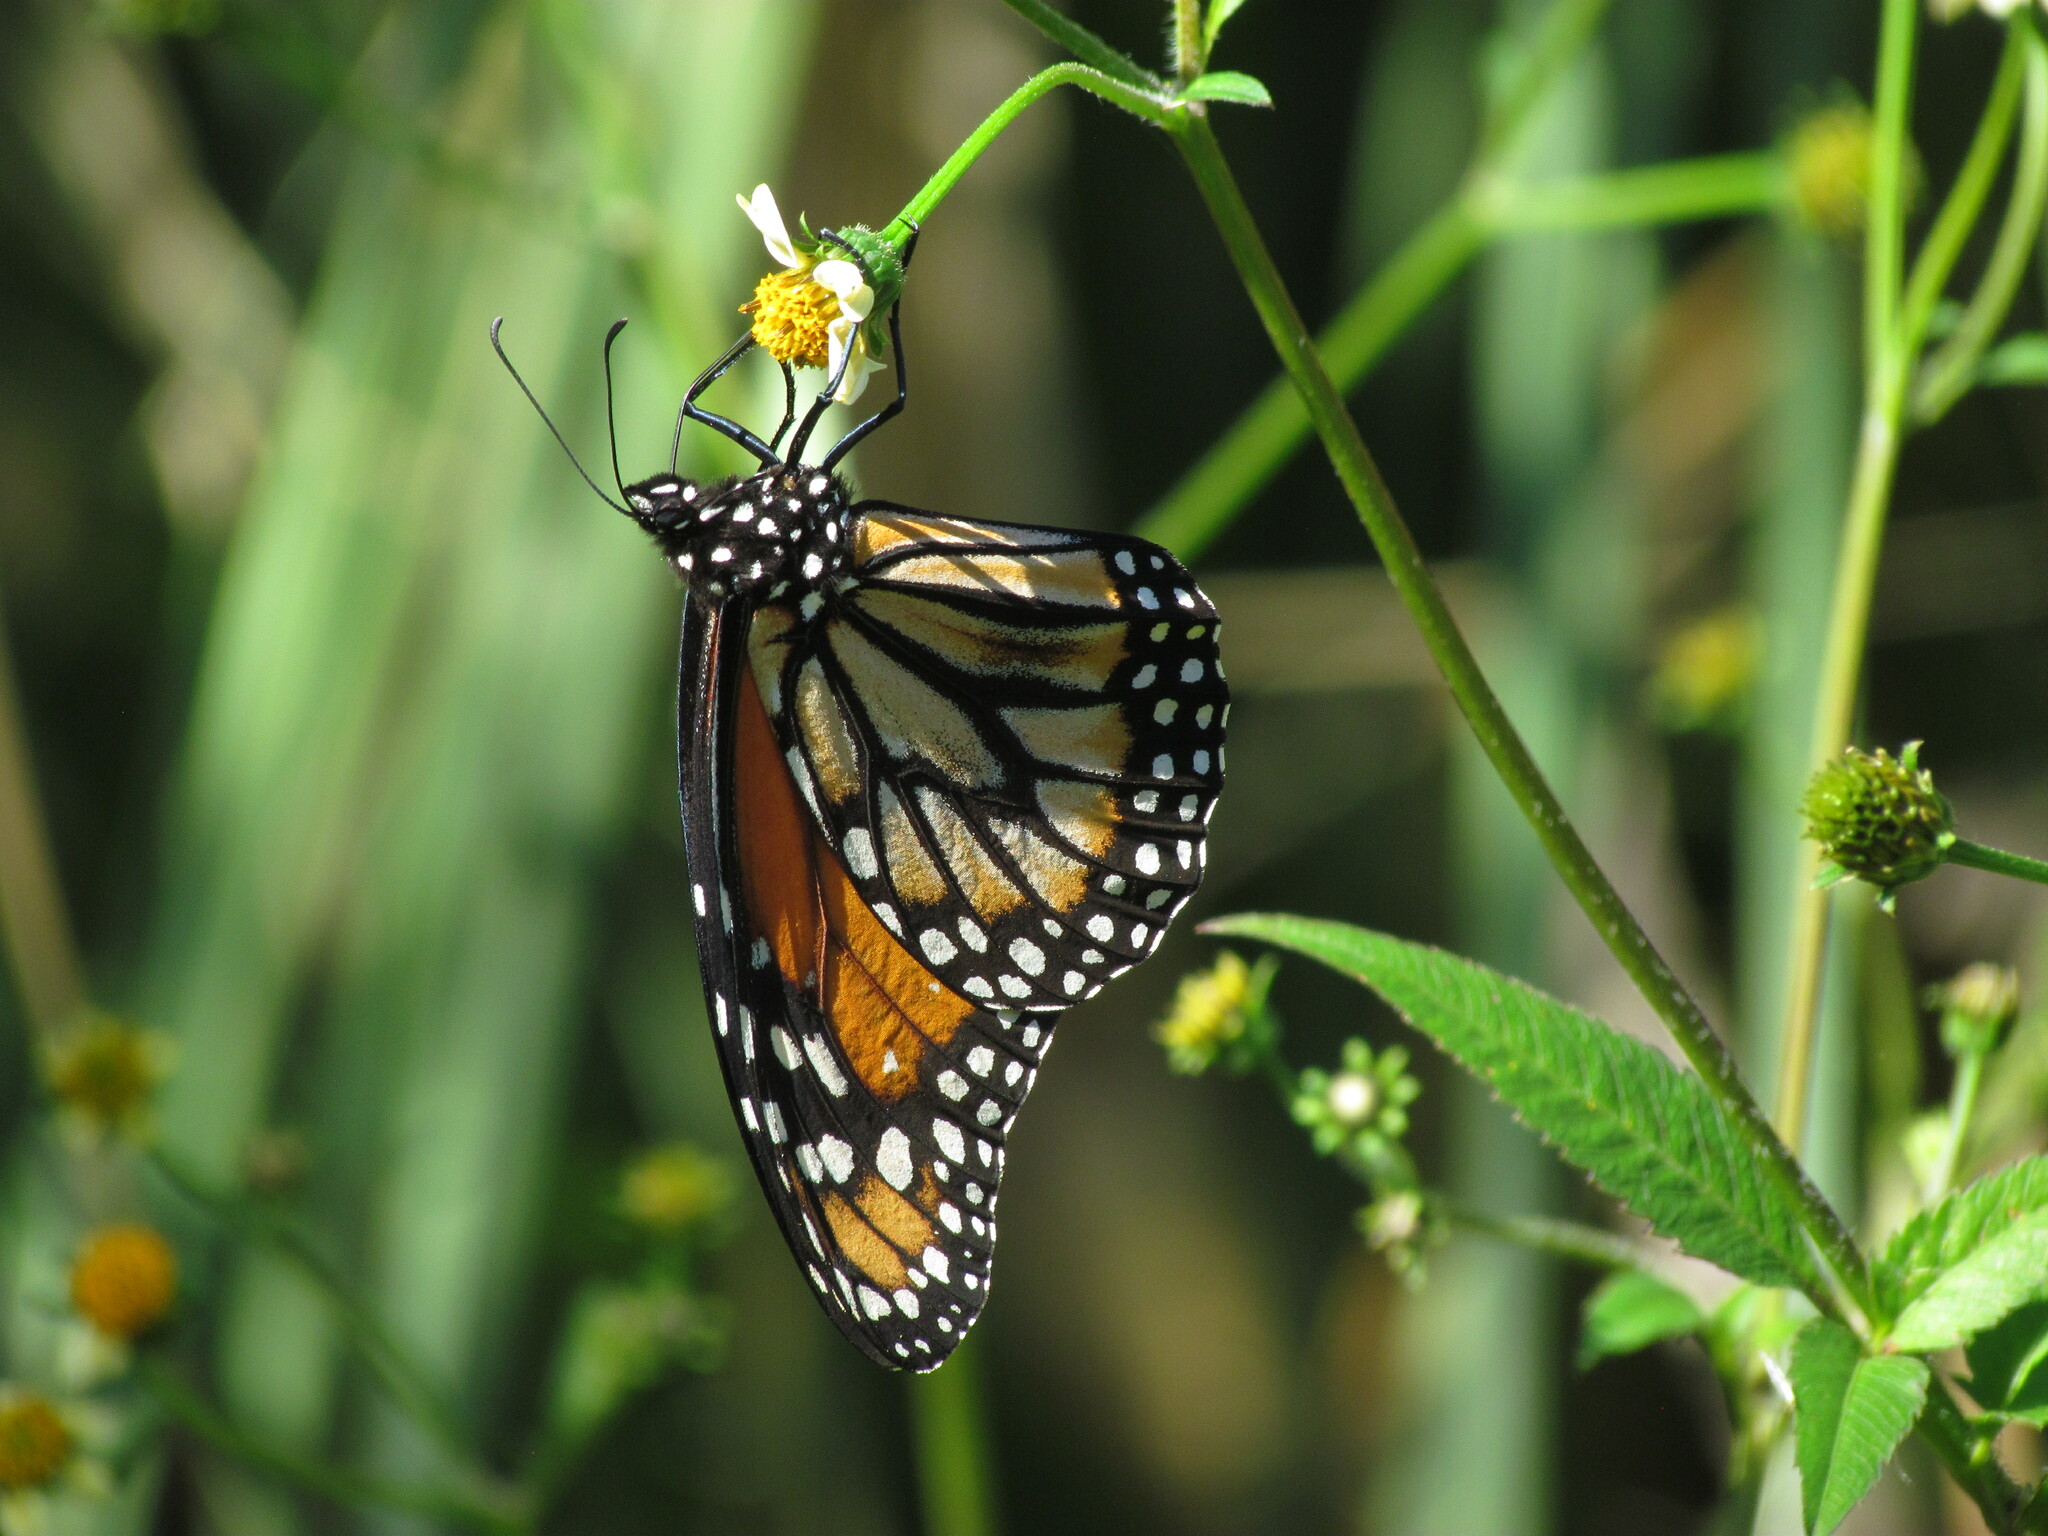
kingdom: Animalia
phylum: Arthropoda
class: Insecta
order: Lepidoptera
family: Nymphalidae
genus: Danaus
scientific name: Danaus erippus
